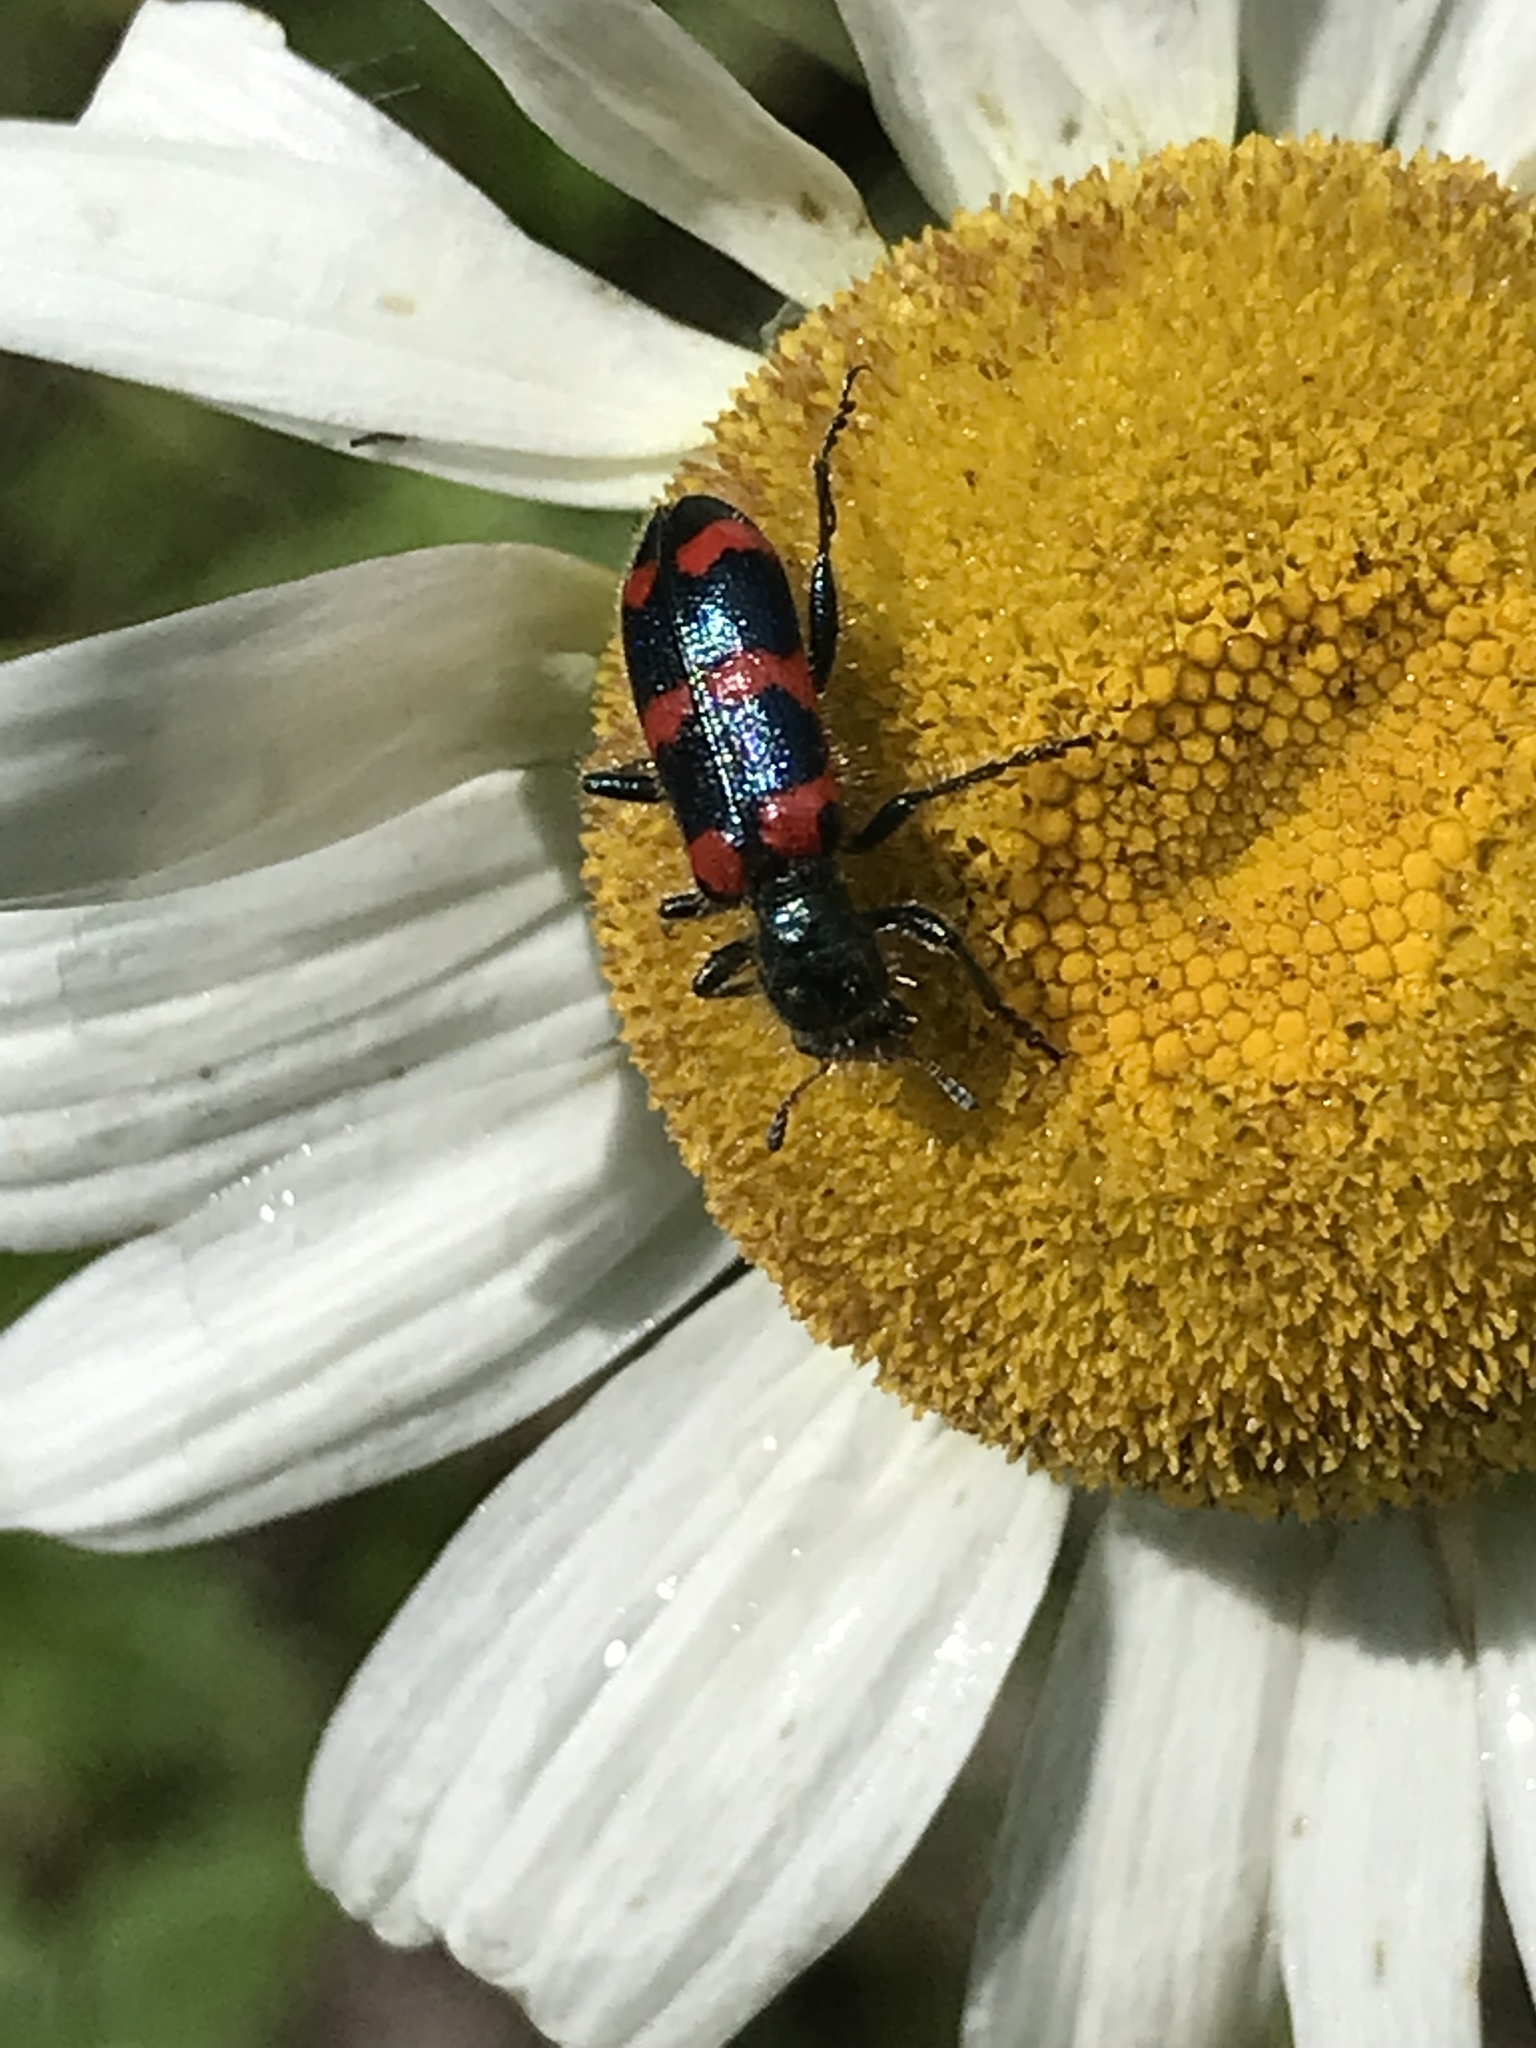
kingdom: Animalia
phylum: Arthropoda
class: Insecta
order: Coleoptera
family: Cleridae
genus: Trichodes
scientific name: Trichodes nutalli
